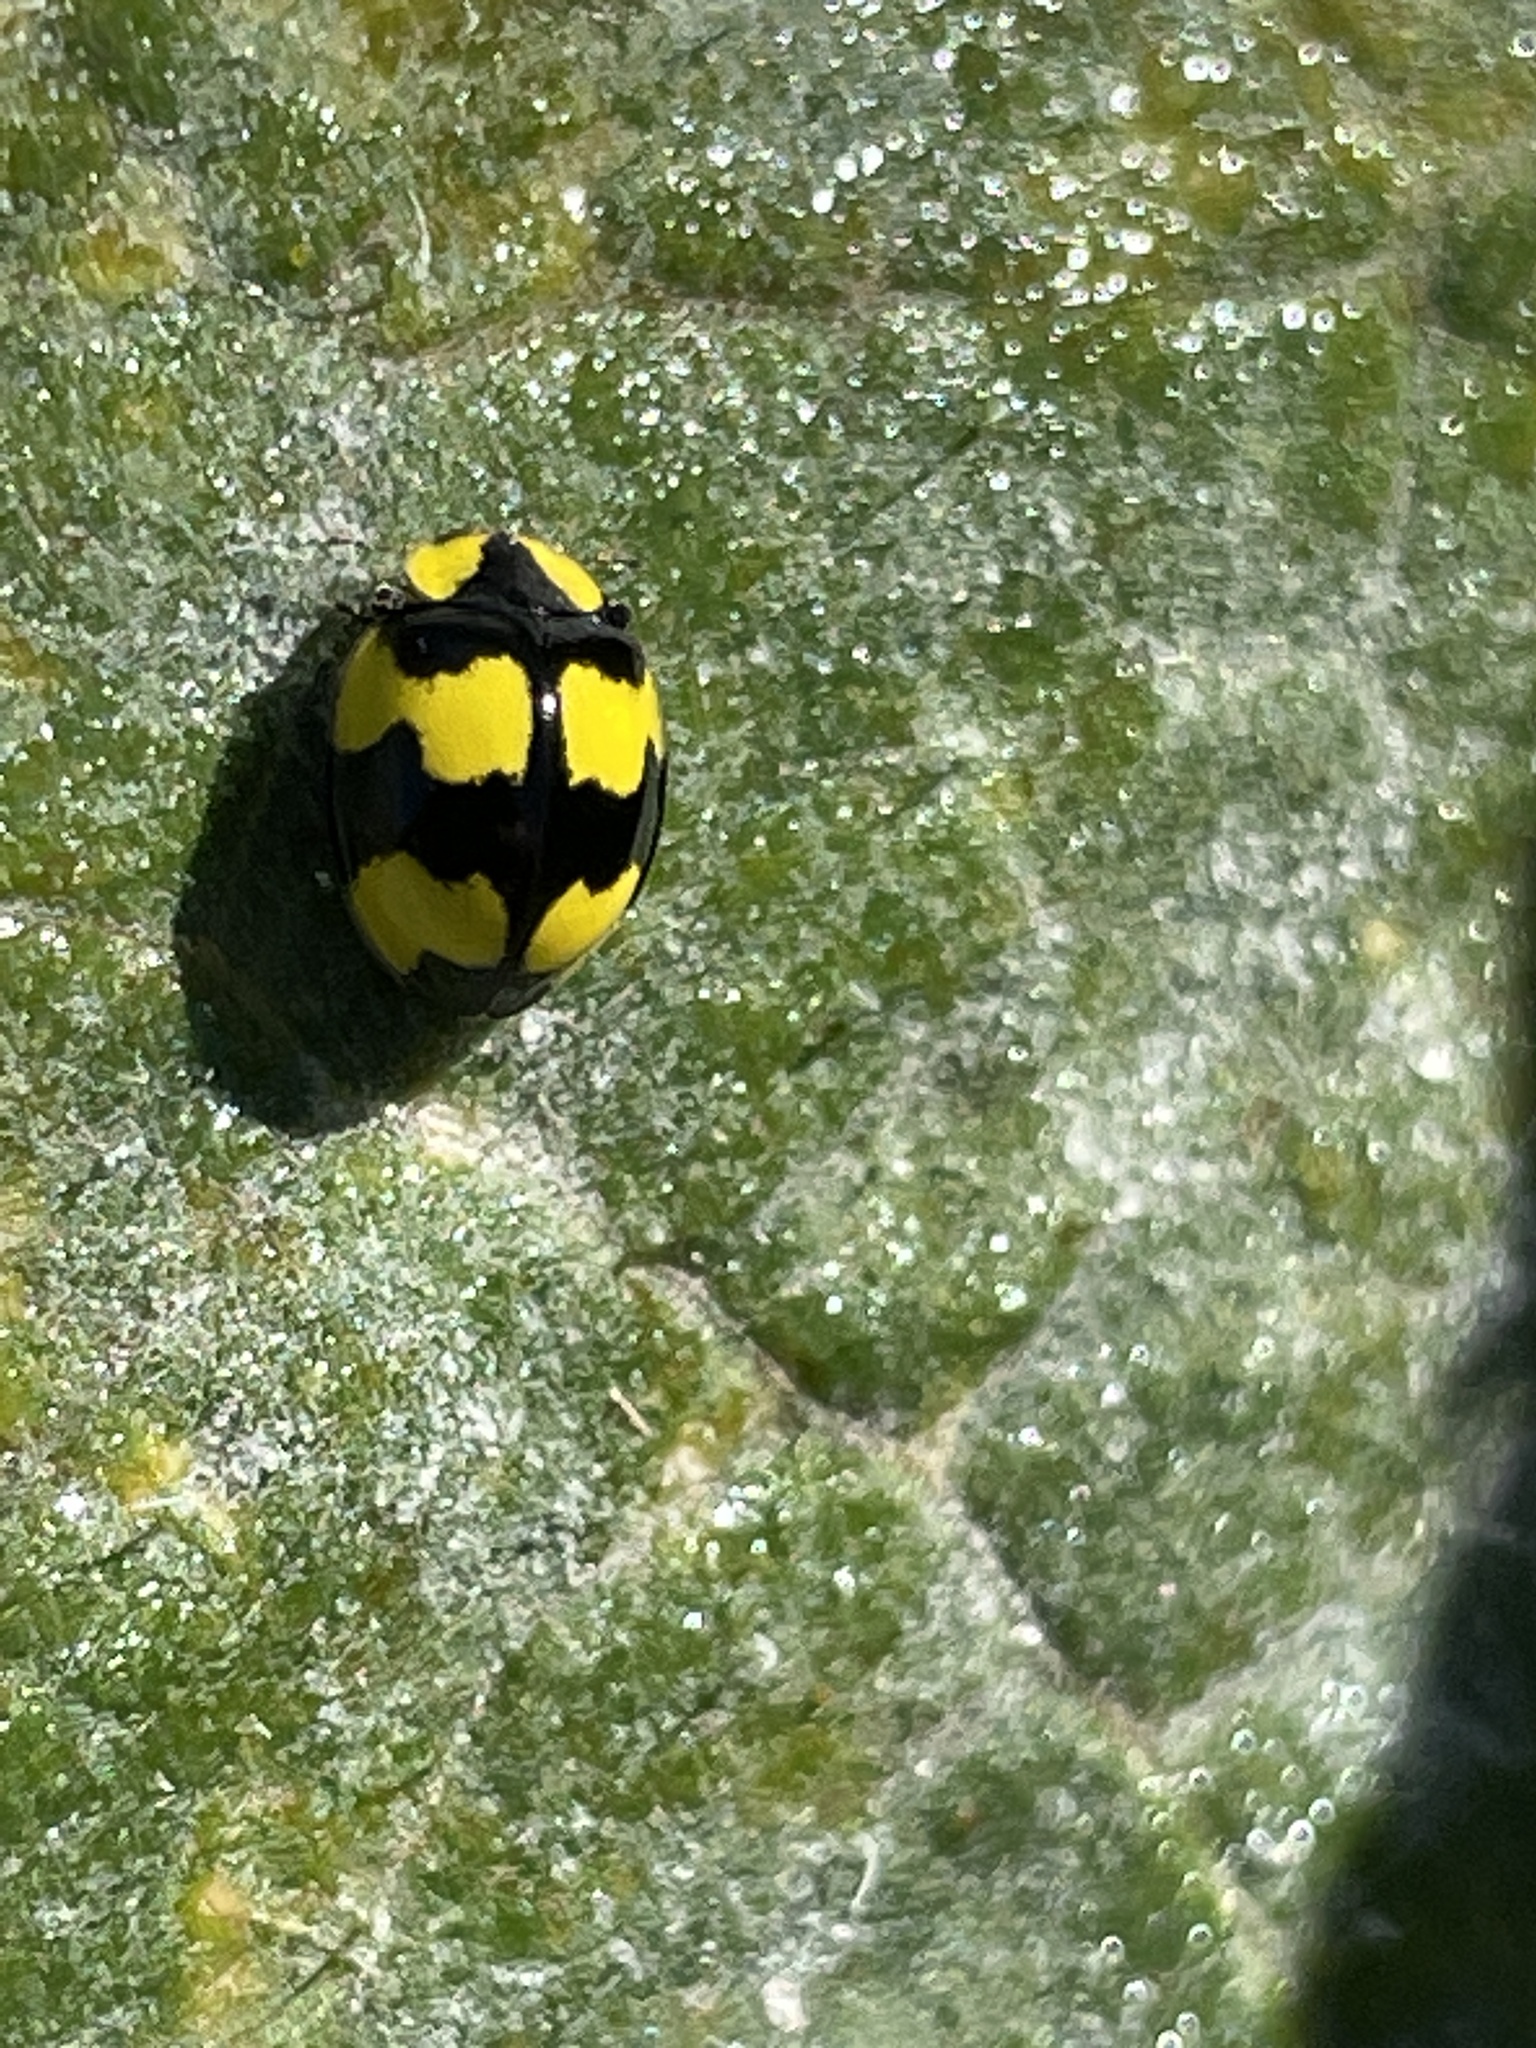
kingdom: Animalia
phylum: Arthropoda
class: Insecta
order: Coleoptera
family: Coccinellidae
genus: Illeis
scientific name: Illeis galbula
